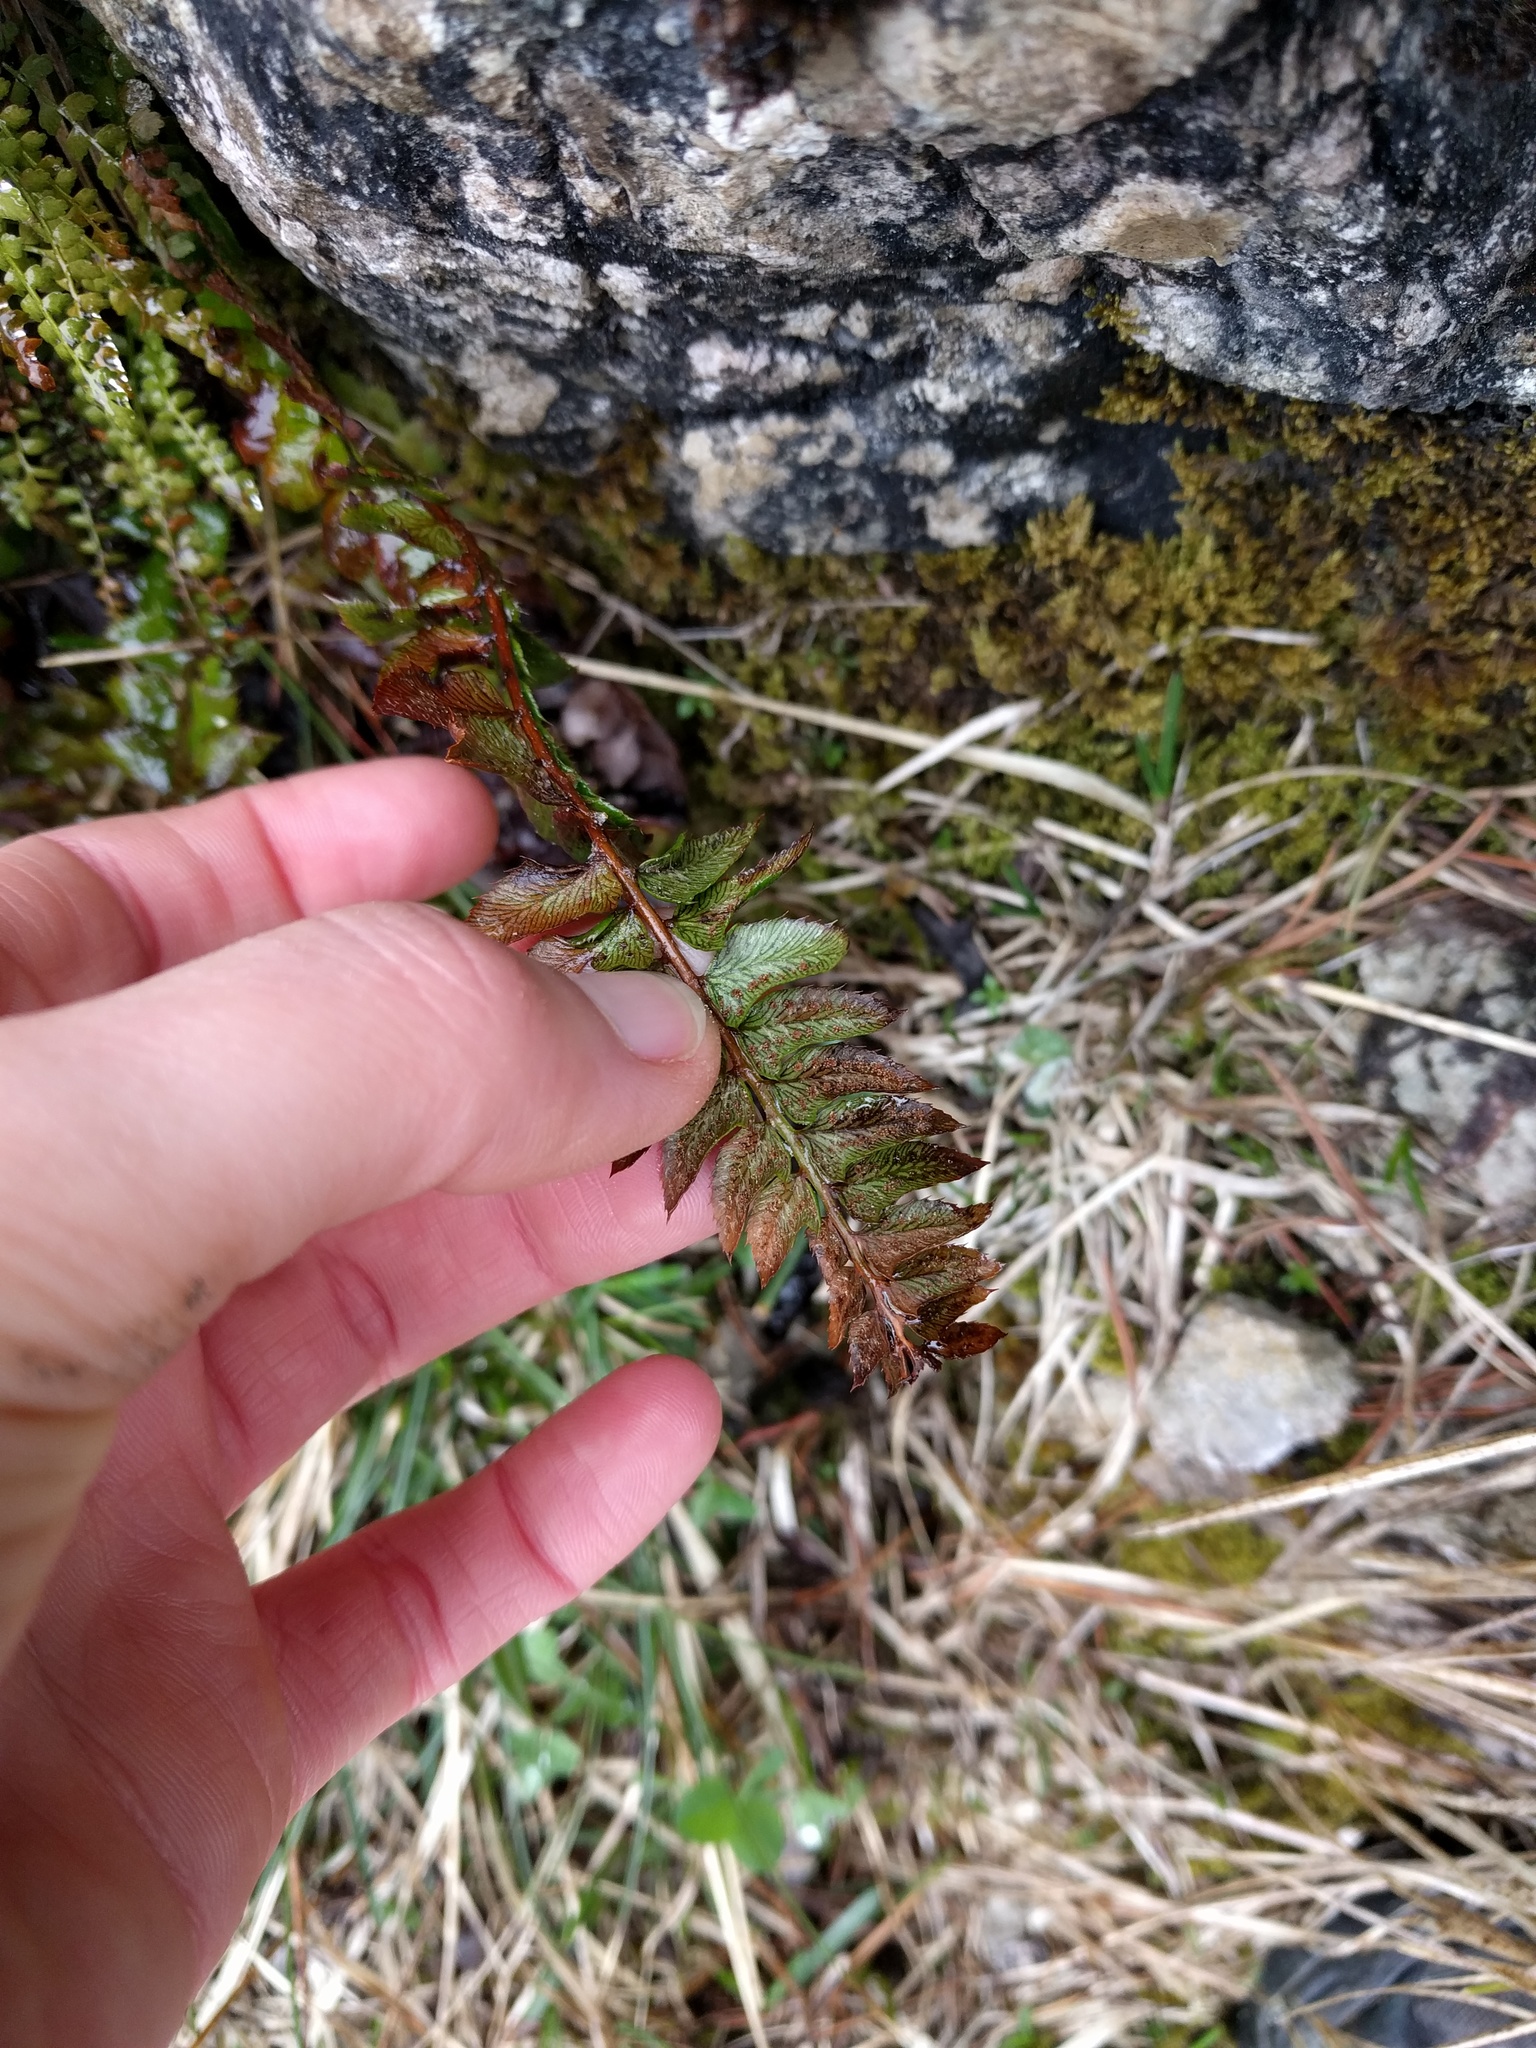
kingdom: Plantae
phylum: Tracheophyta
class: Polypodiopsida
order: Polypodiales
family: Dryopteridaceae
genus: Polystichum
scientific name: Polystichum lonchitis
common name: Holly fern
